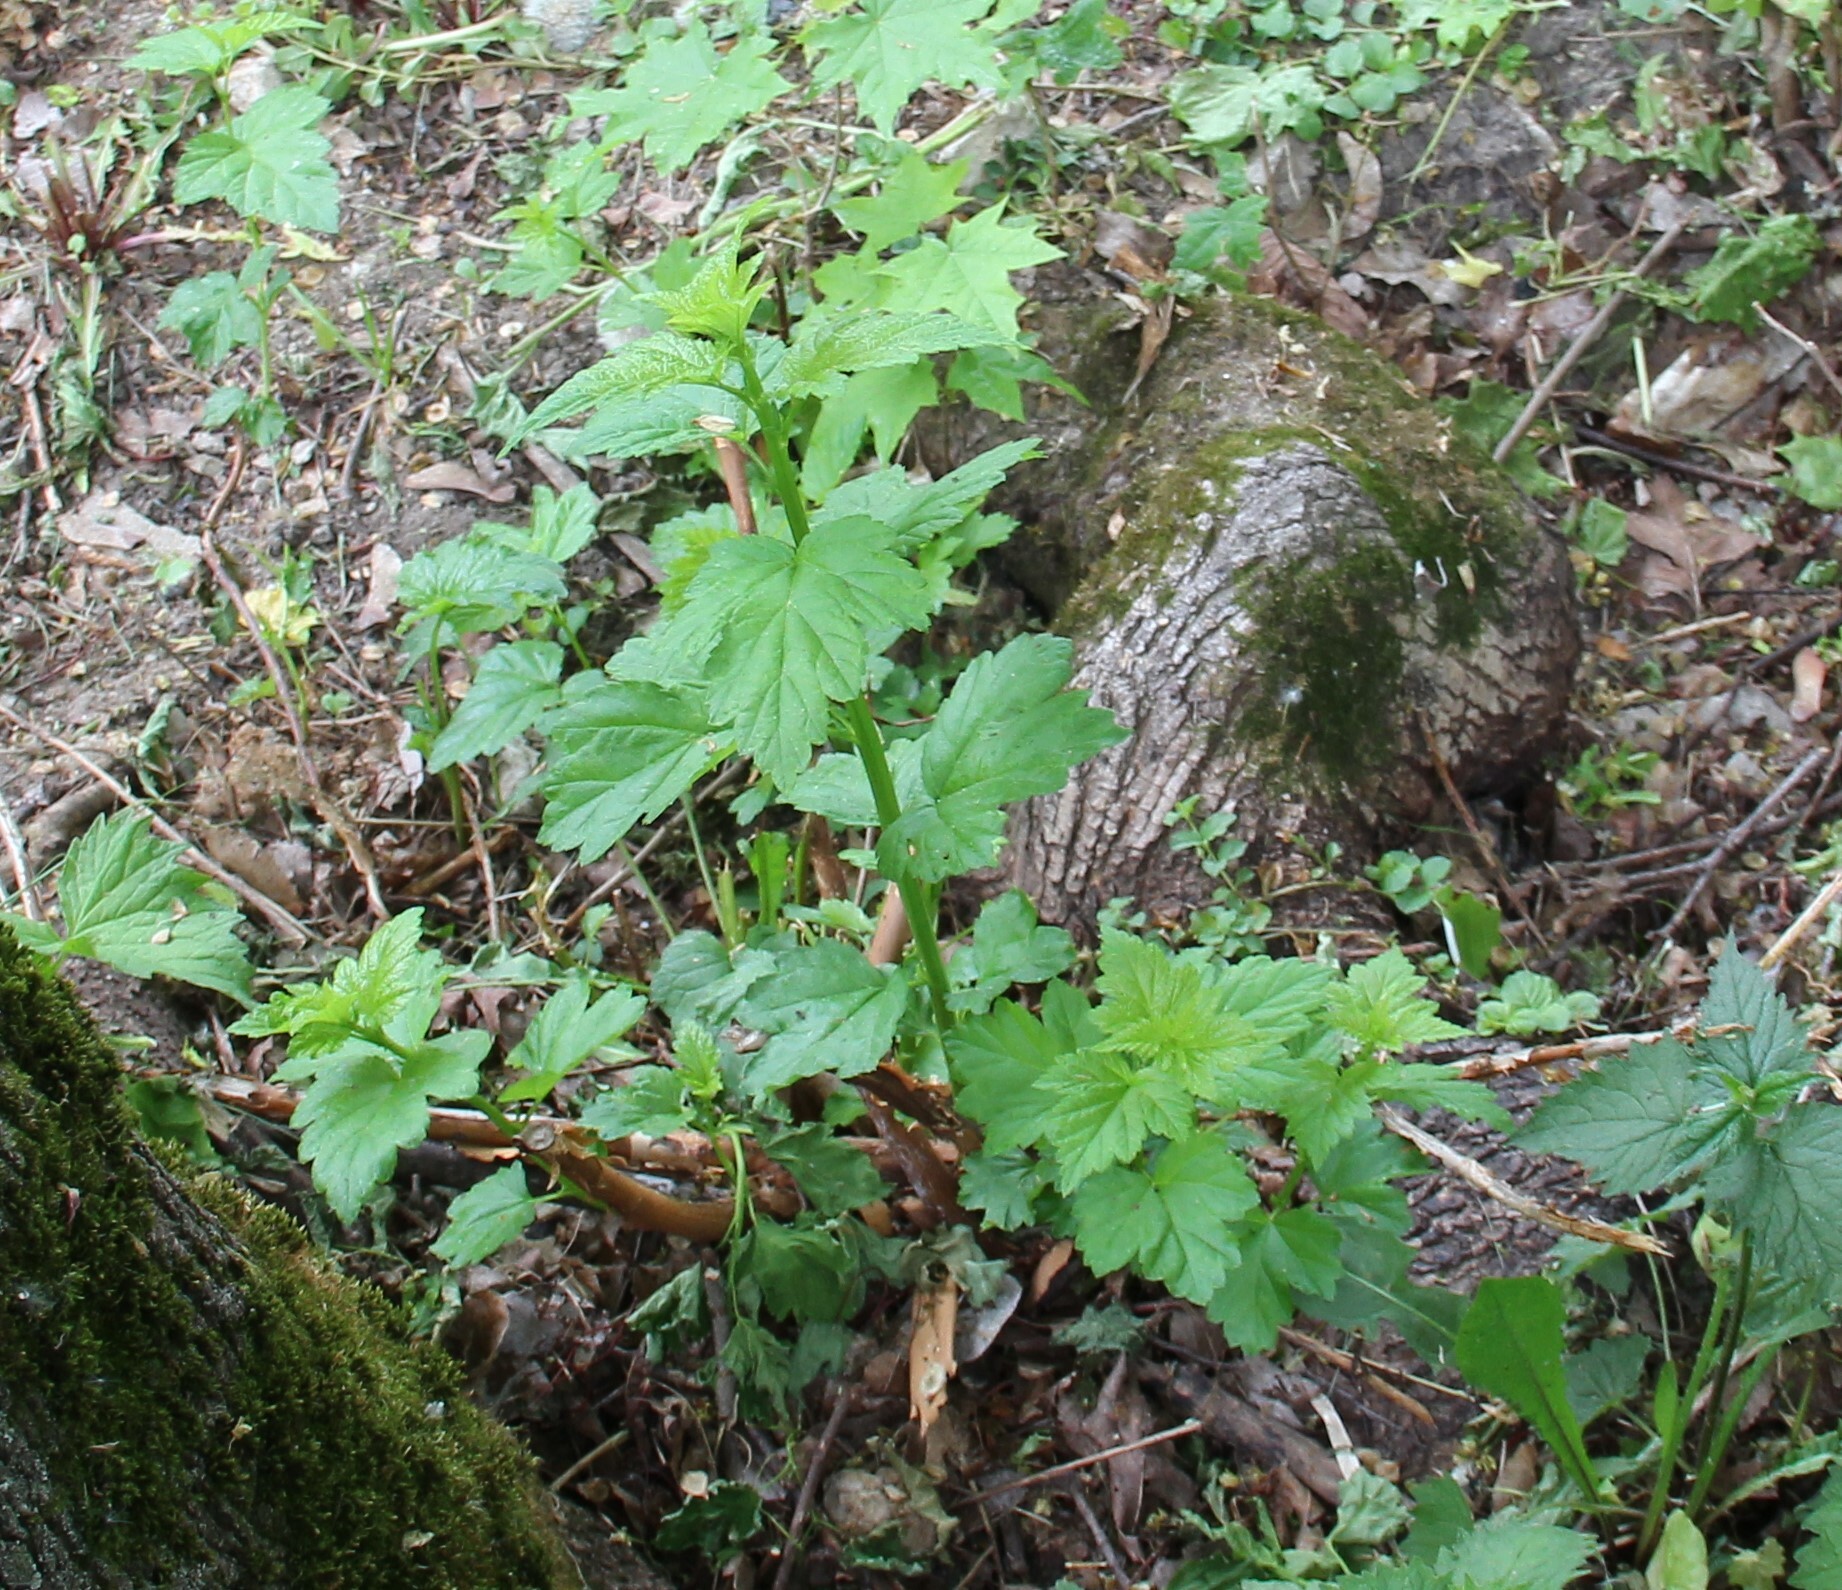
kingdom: Plantae
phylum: Tracheophyta
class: Magnoliopsida
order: Rosales
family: Rosaceae
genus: Physocarpus
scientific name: Physocarpus opulifolius
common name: Ninebark
